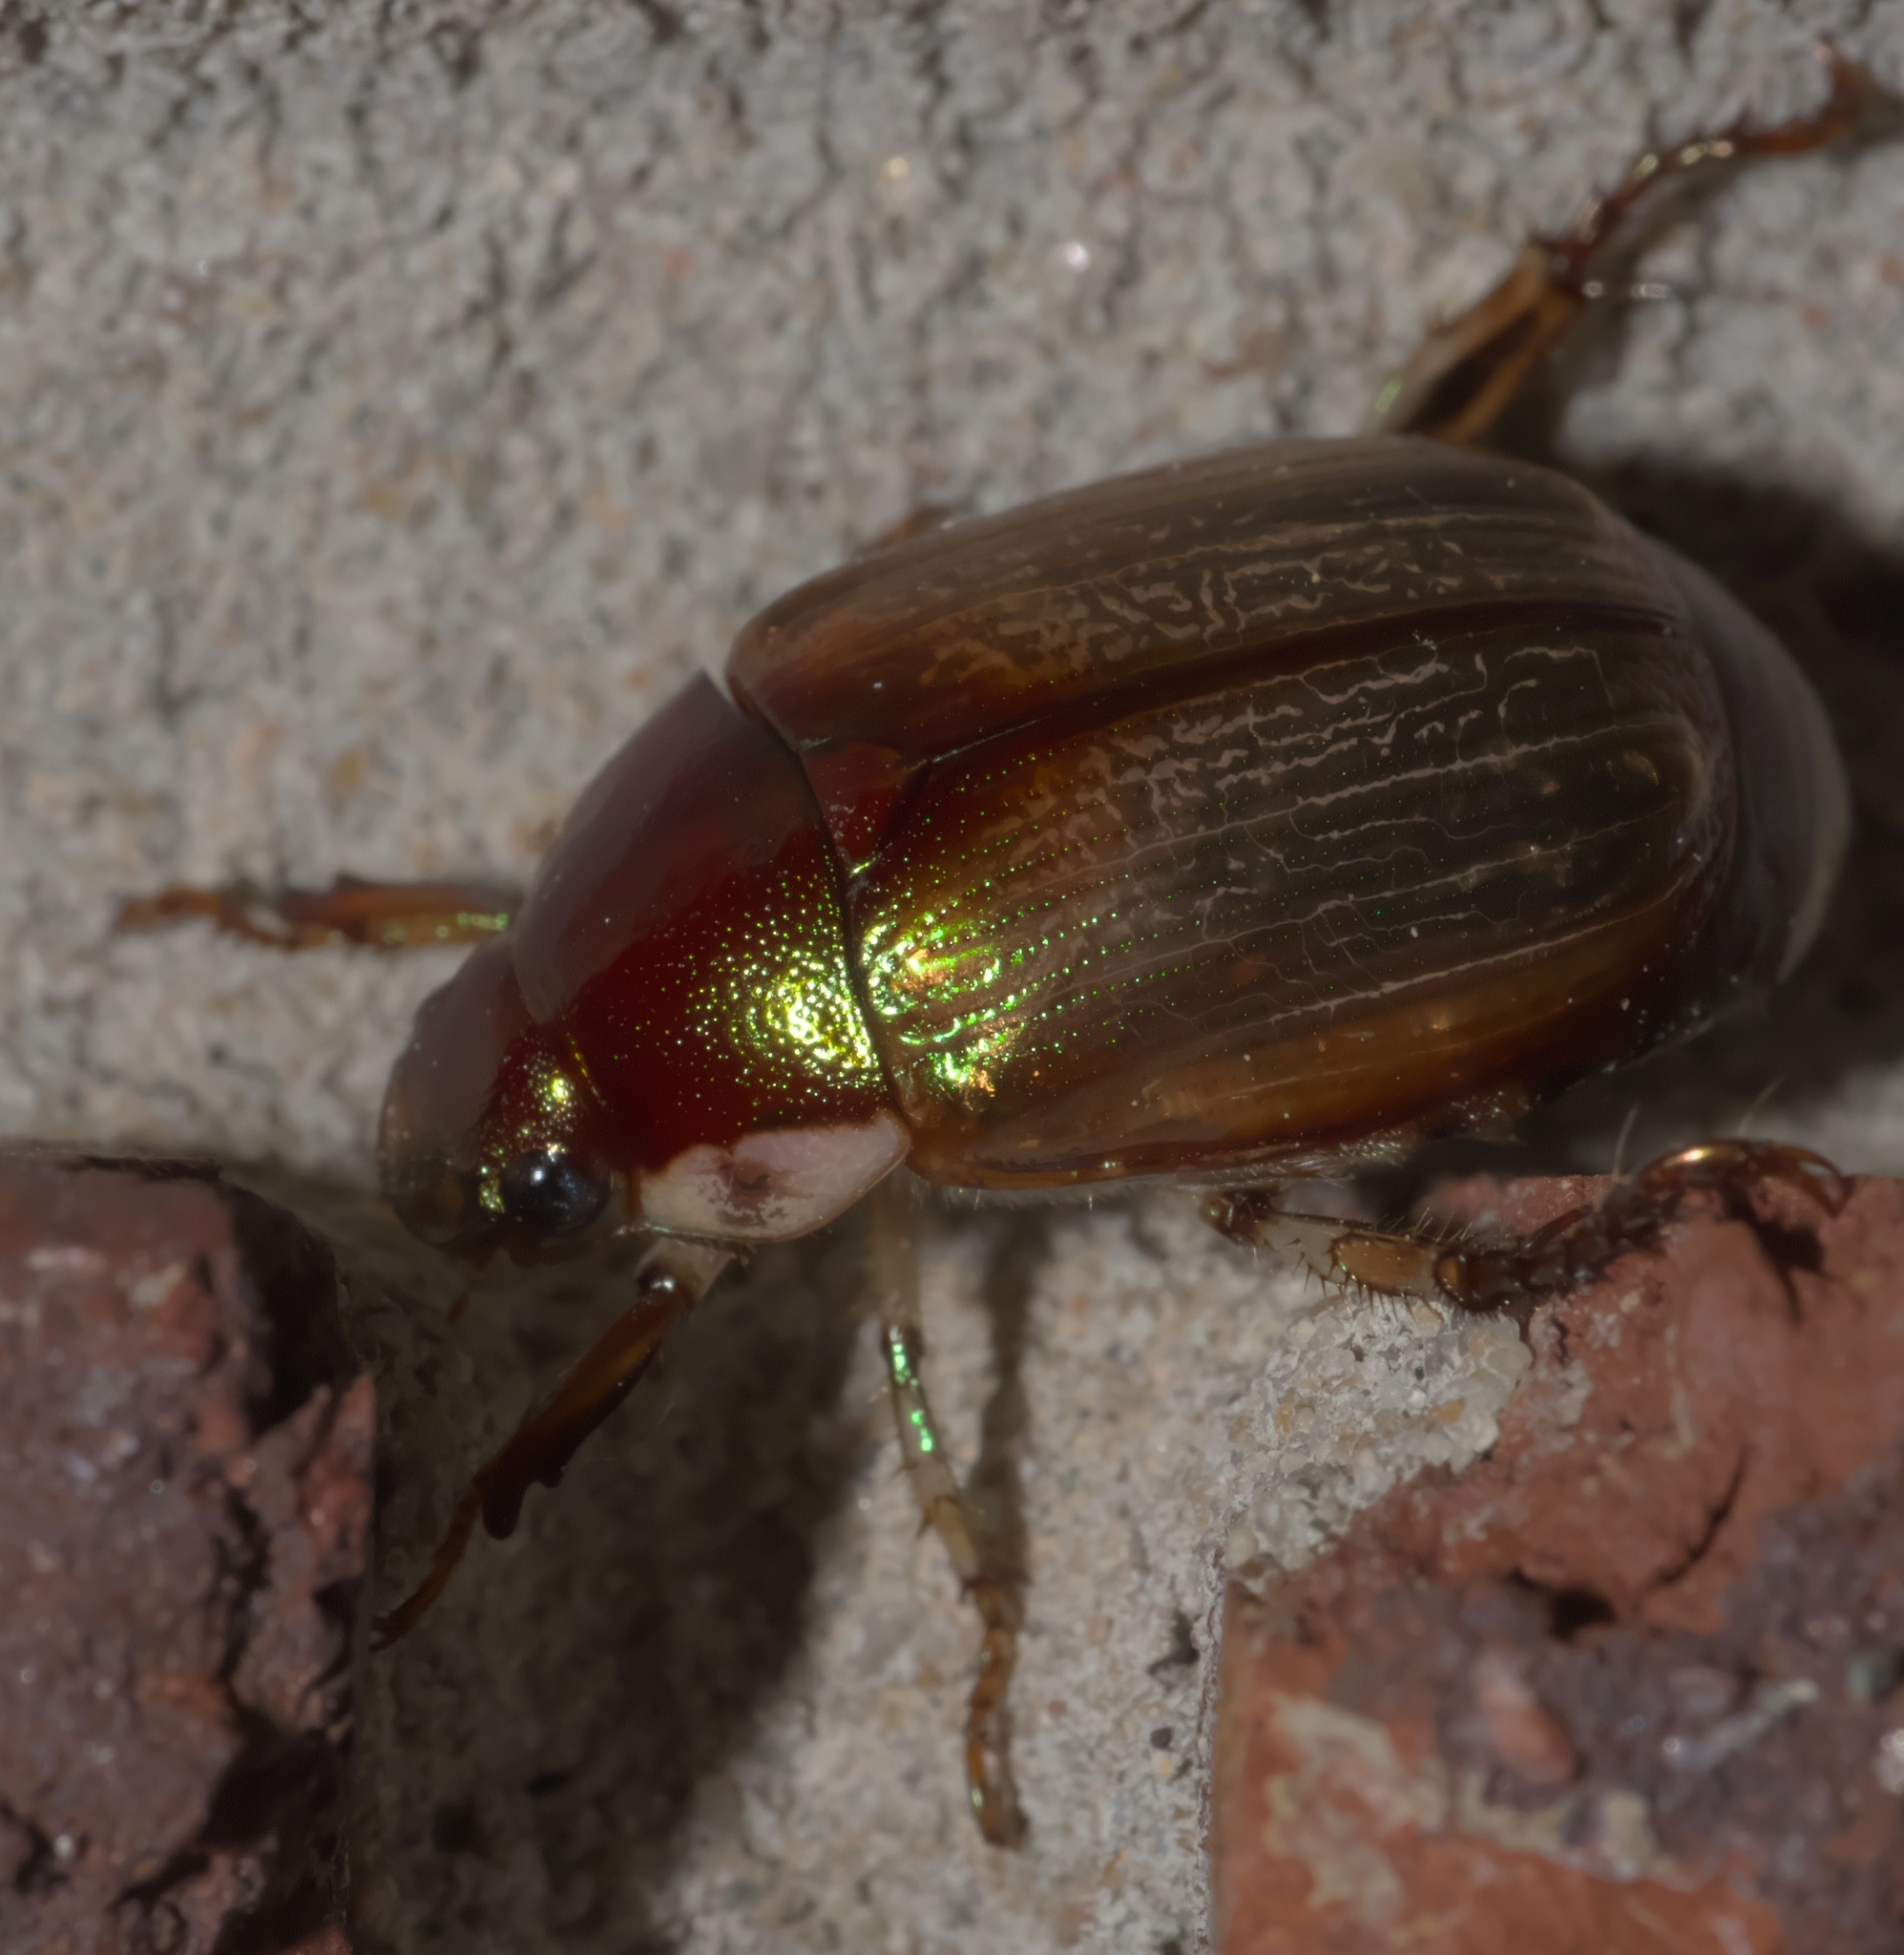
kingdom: Animalia
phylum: Arthropoda
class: Insecta
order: Coleoptera
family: Scarabaeidae
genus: Callistethus
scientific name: Callistethus marginatus
